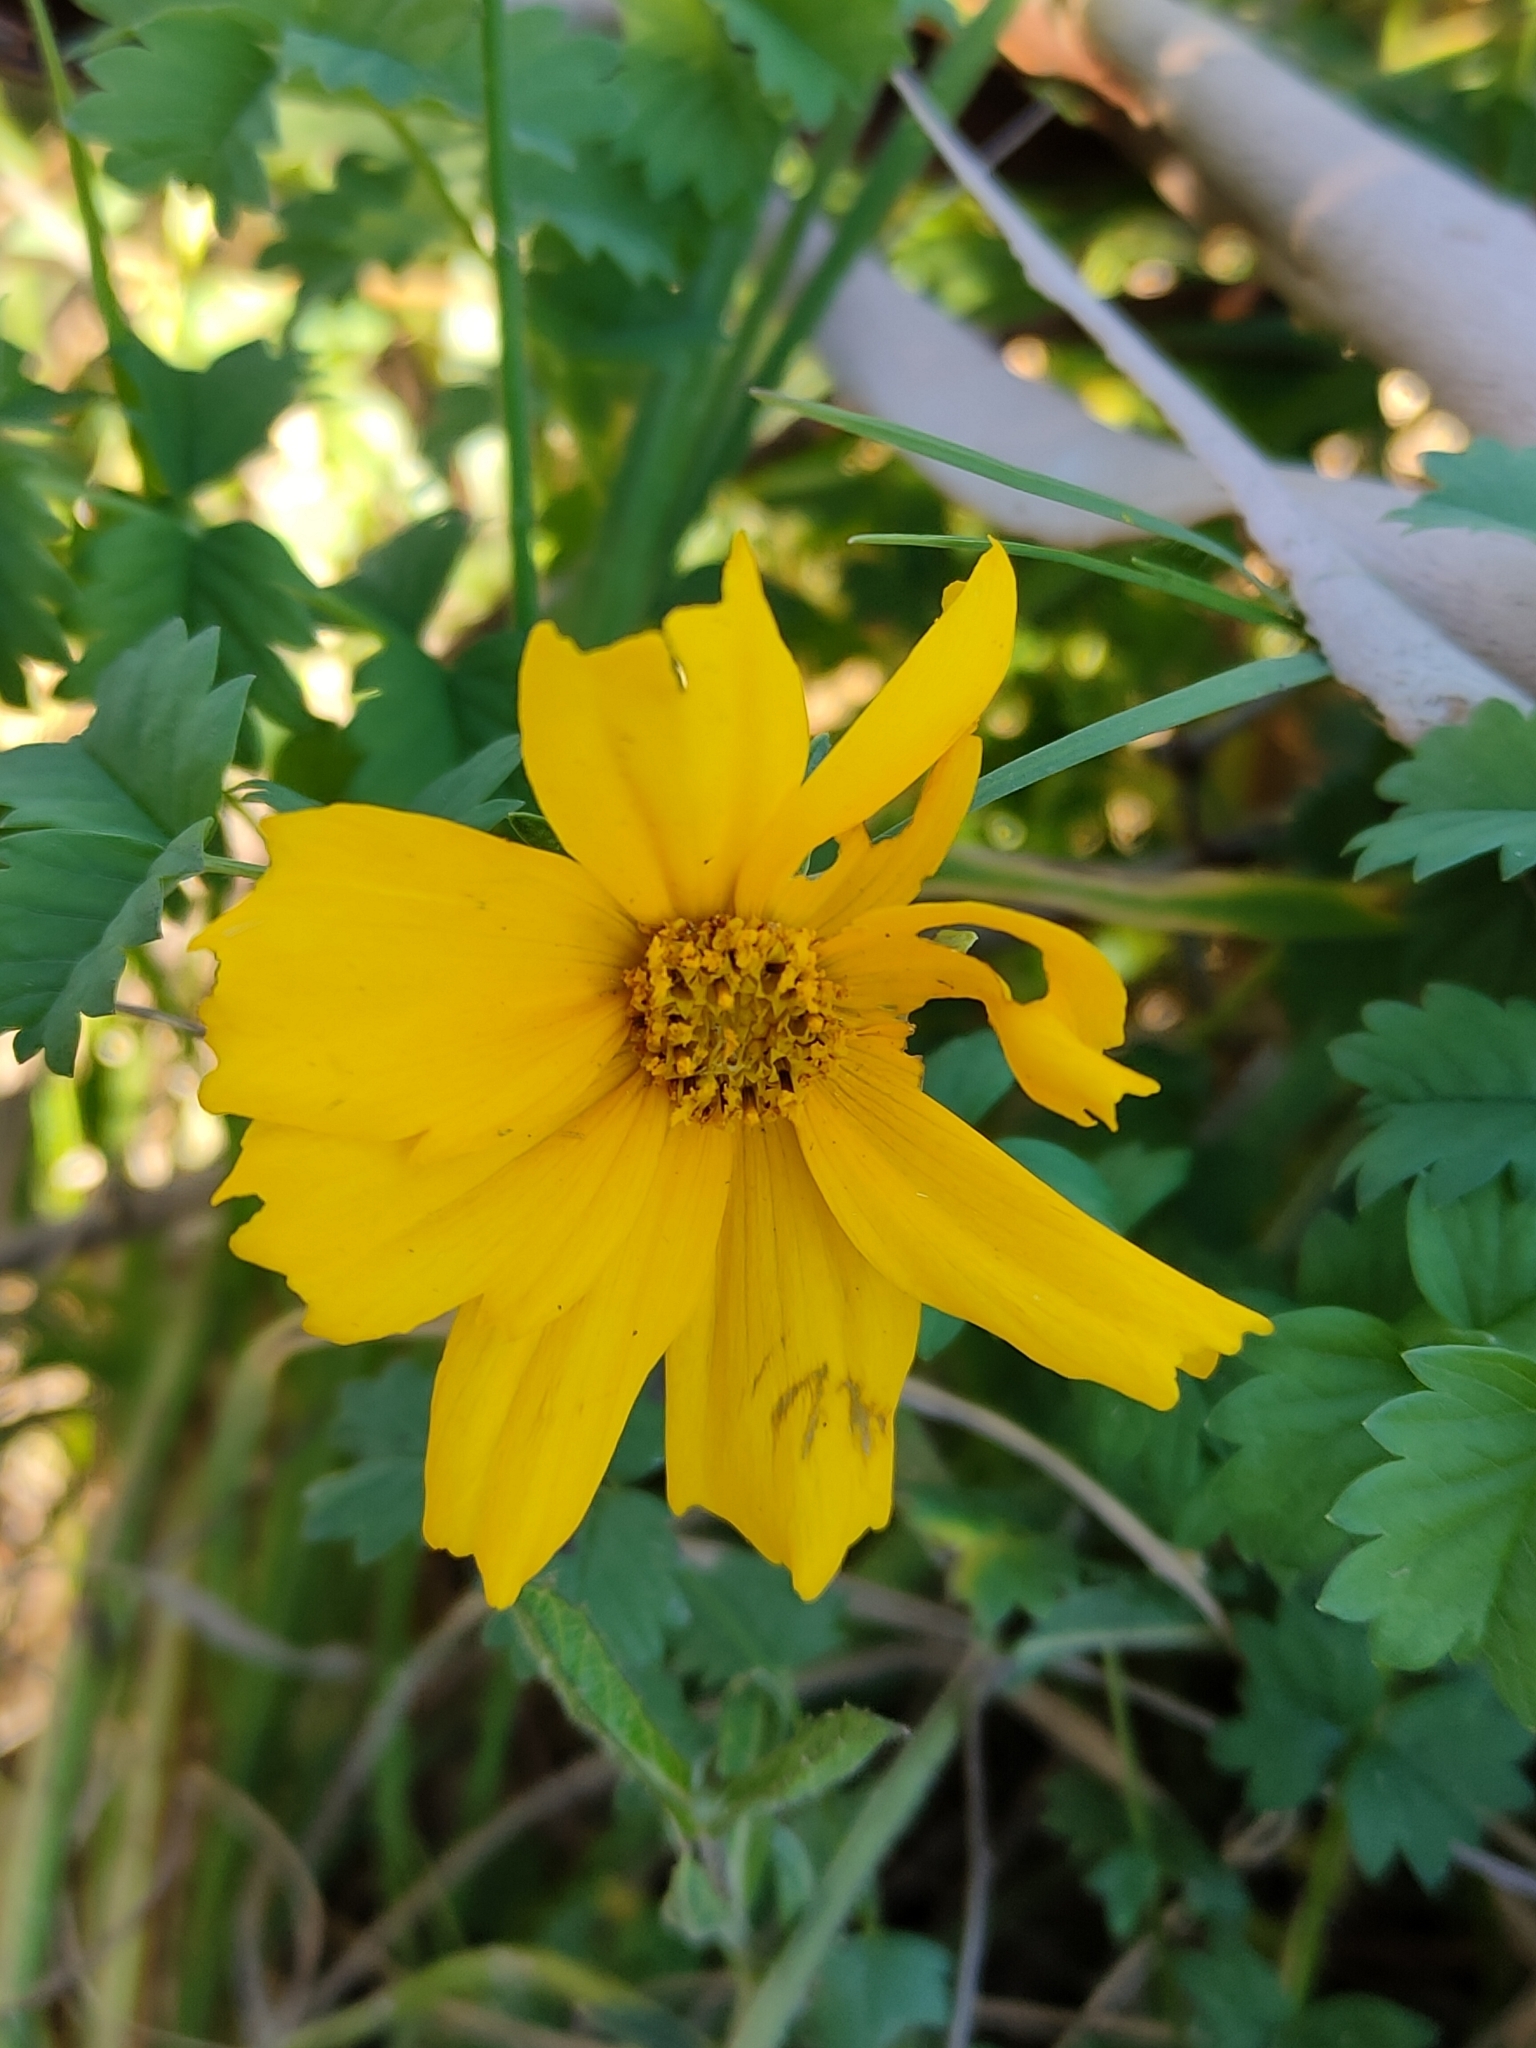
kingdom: Plantae
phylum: Tracheophyta
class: Magnoliopsida
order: Asterales
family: Asteraceae
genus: Coreopsis
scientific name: Coreopsis lanceolata
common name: Garden coreopsis
